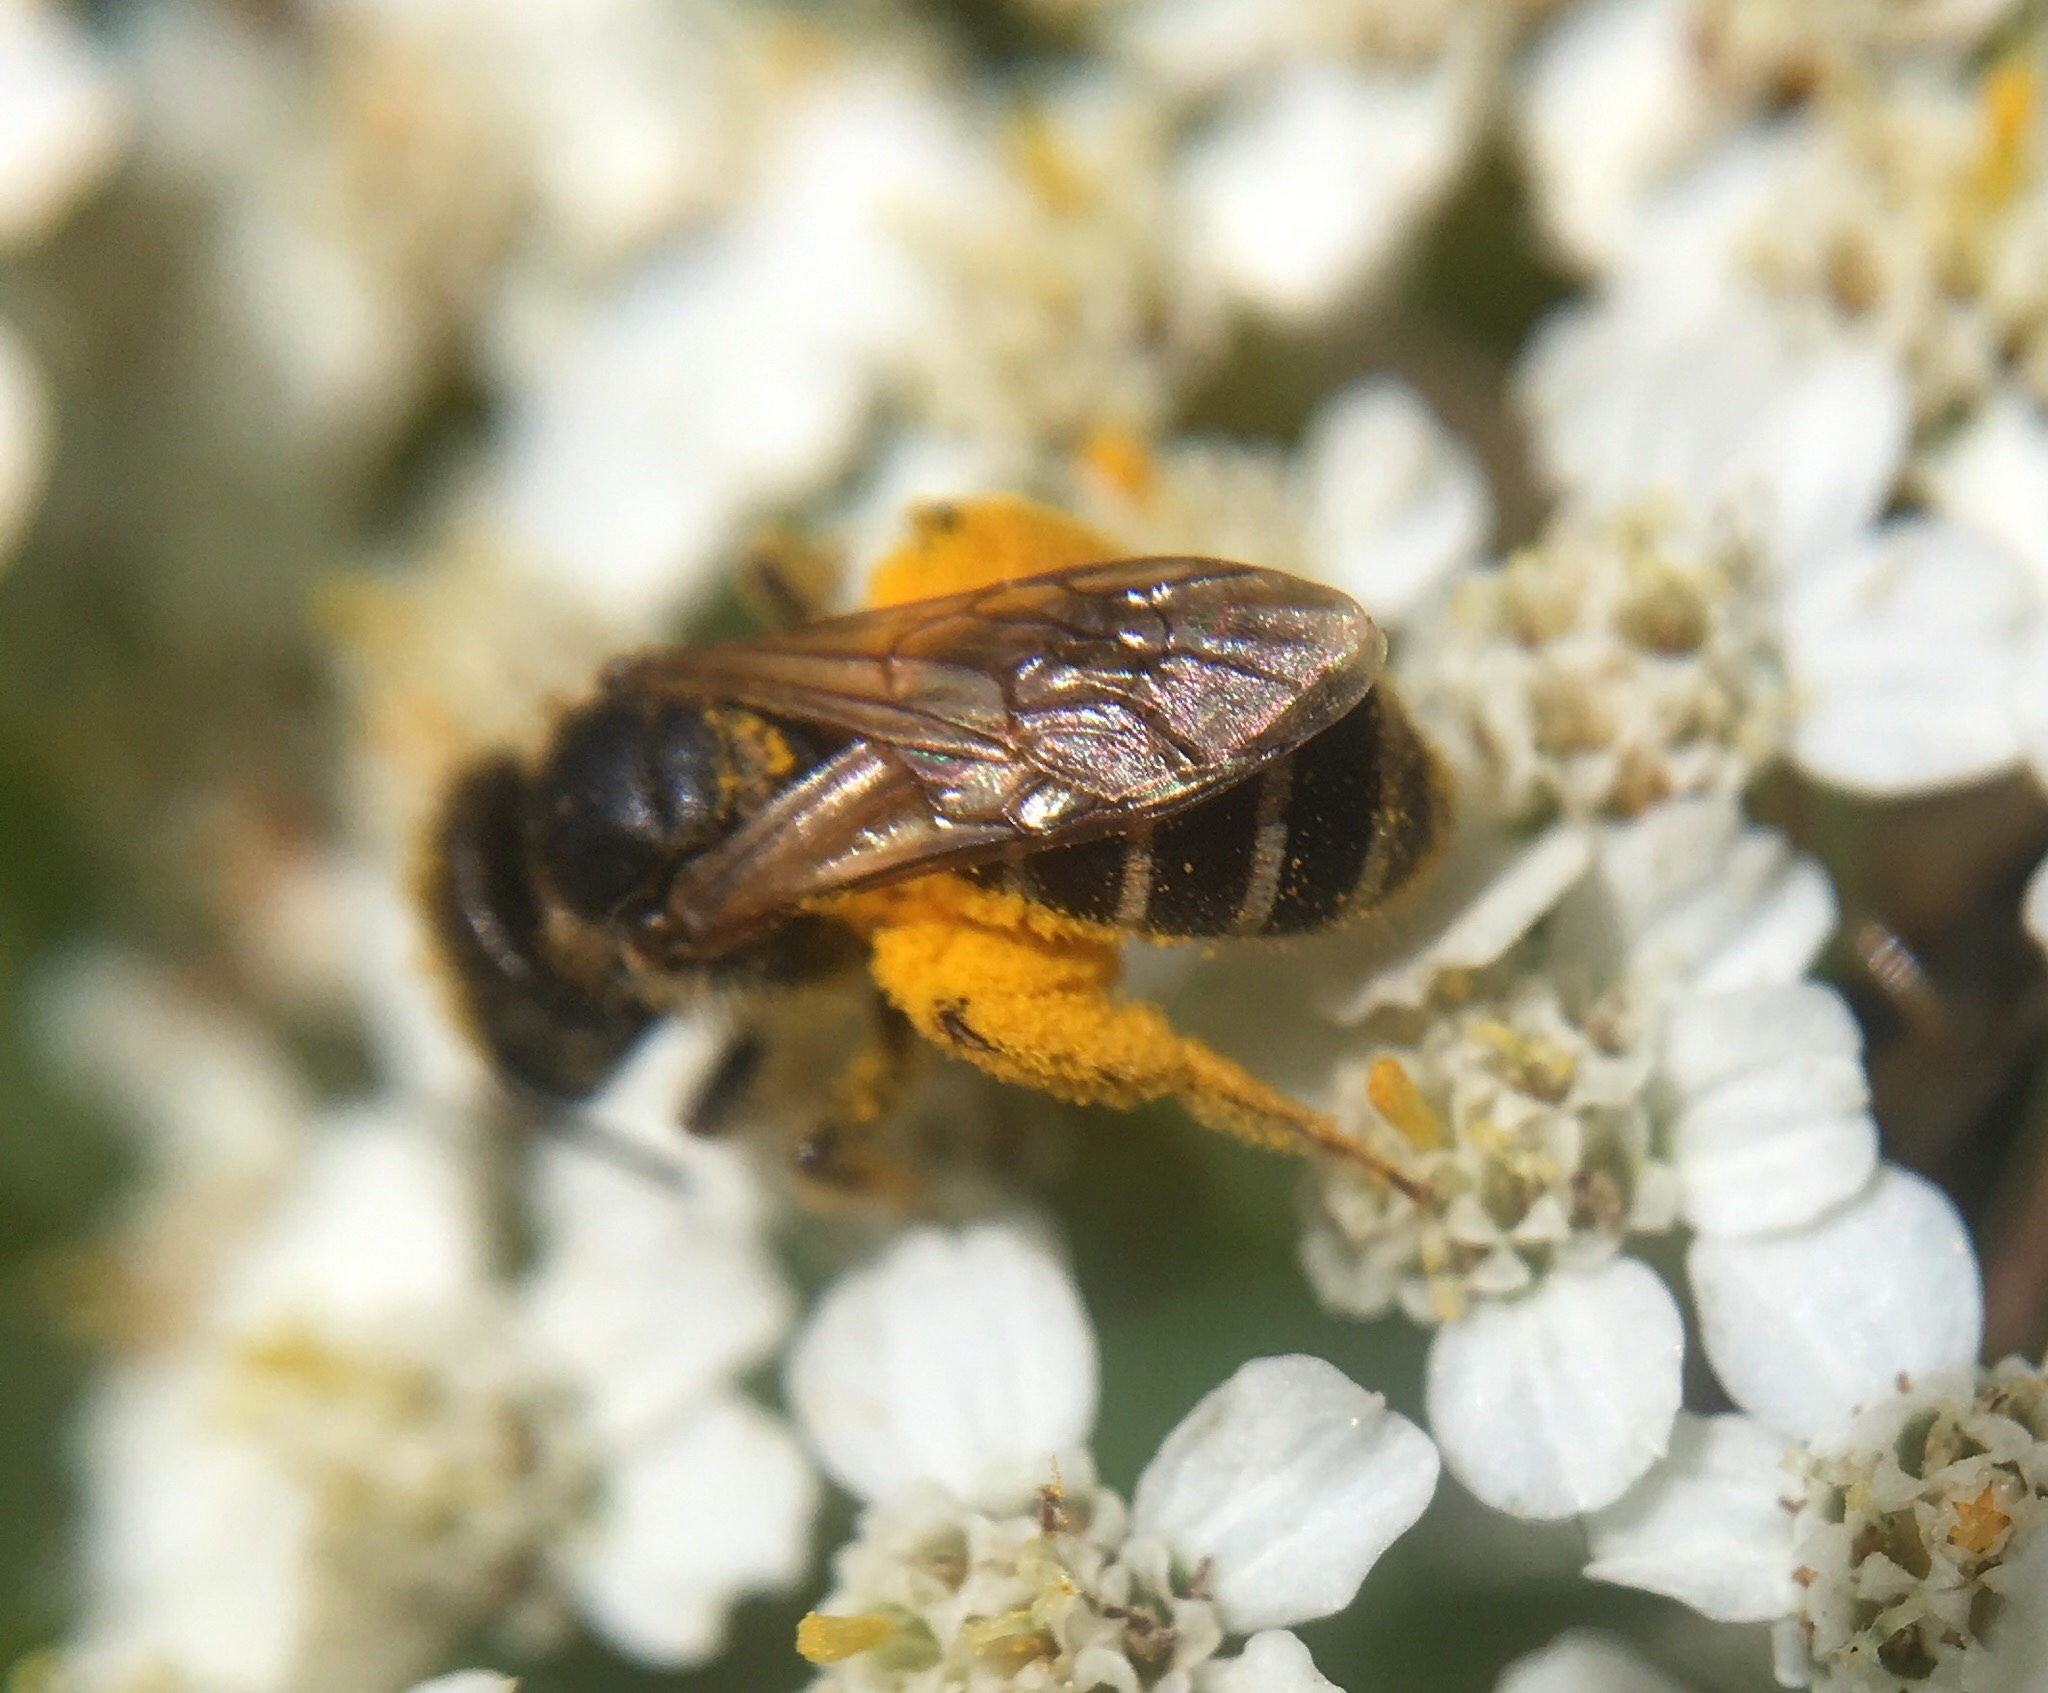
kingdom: Animalia
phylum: Arthropoda
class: Insecta
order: Hymenoptera
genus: Odontalictus
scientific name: Odontalictus
